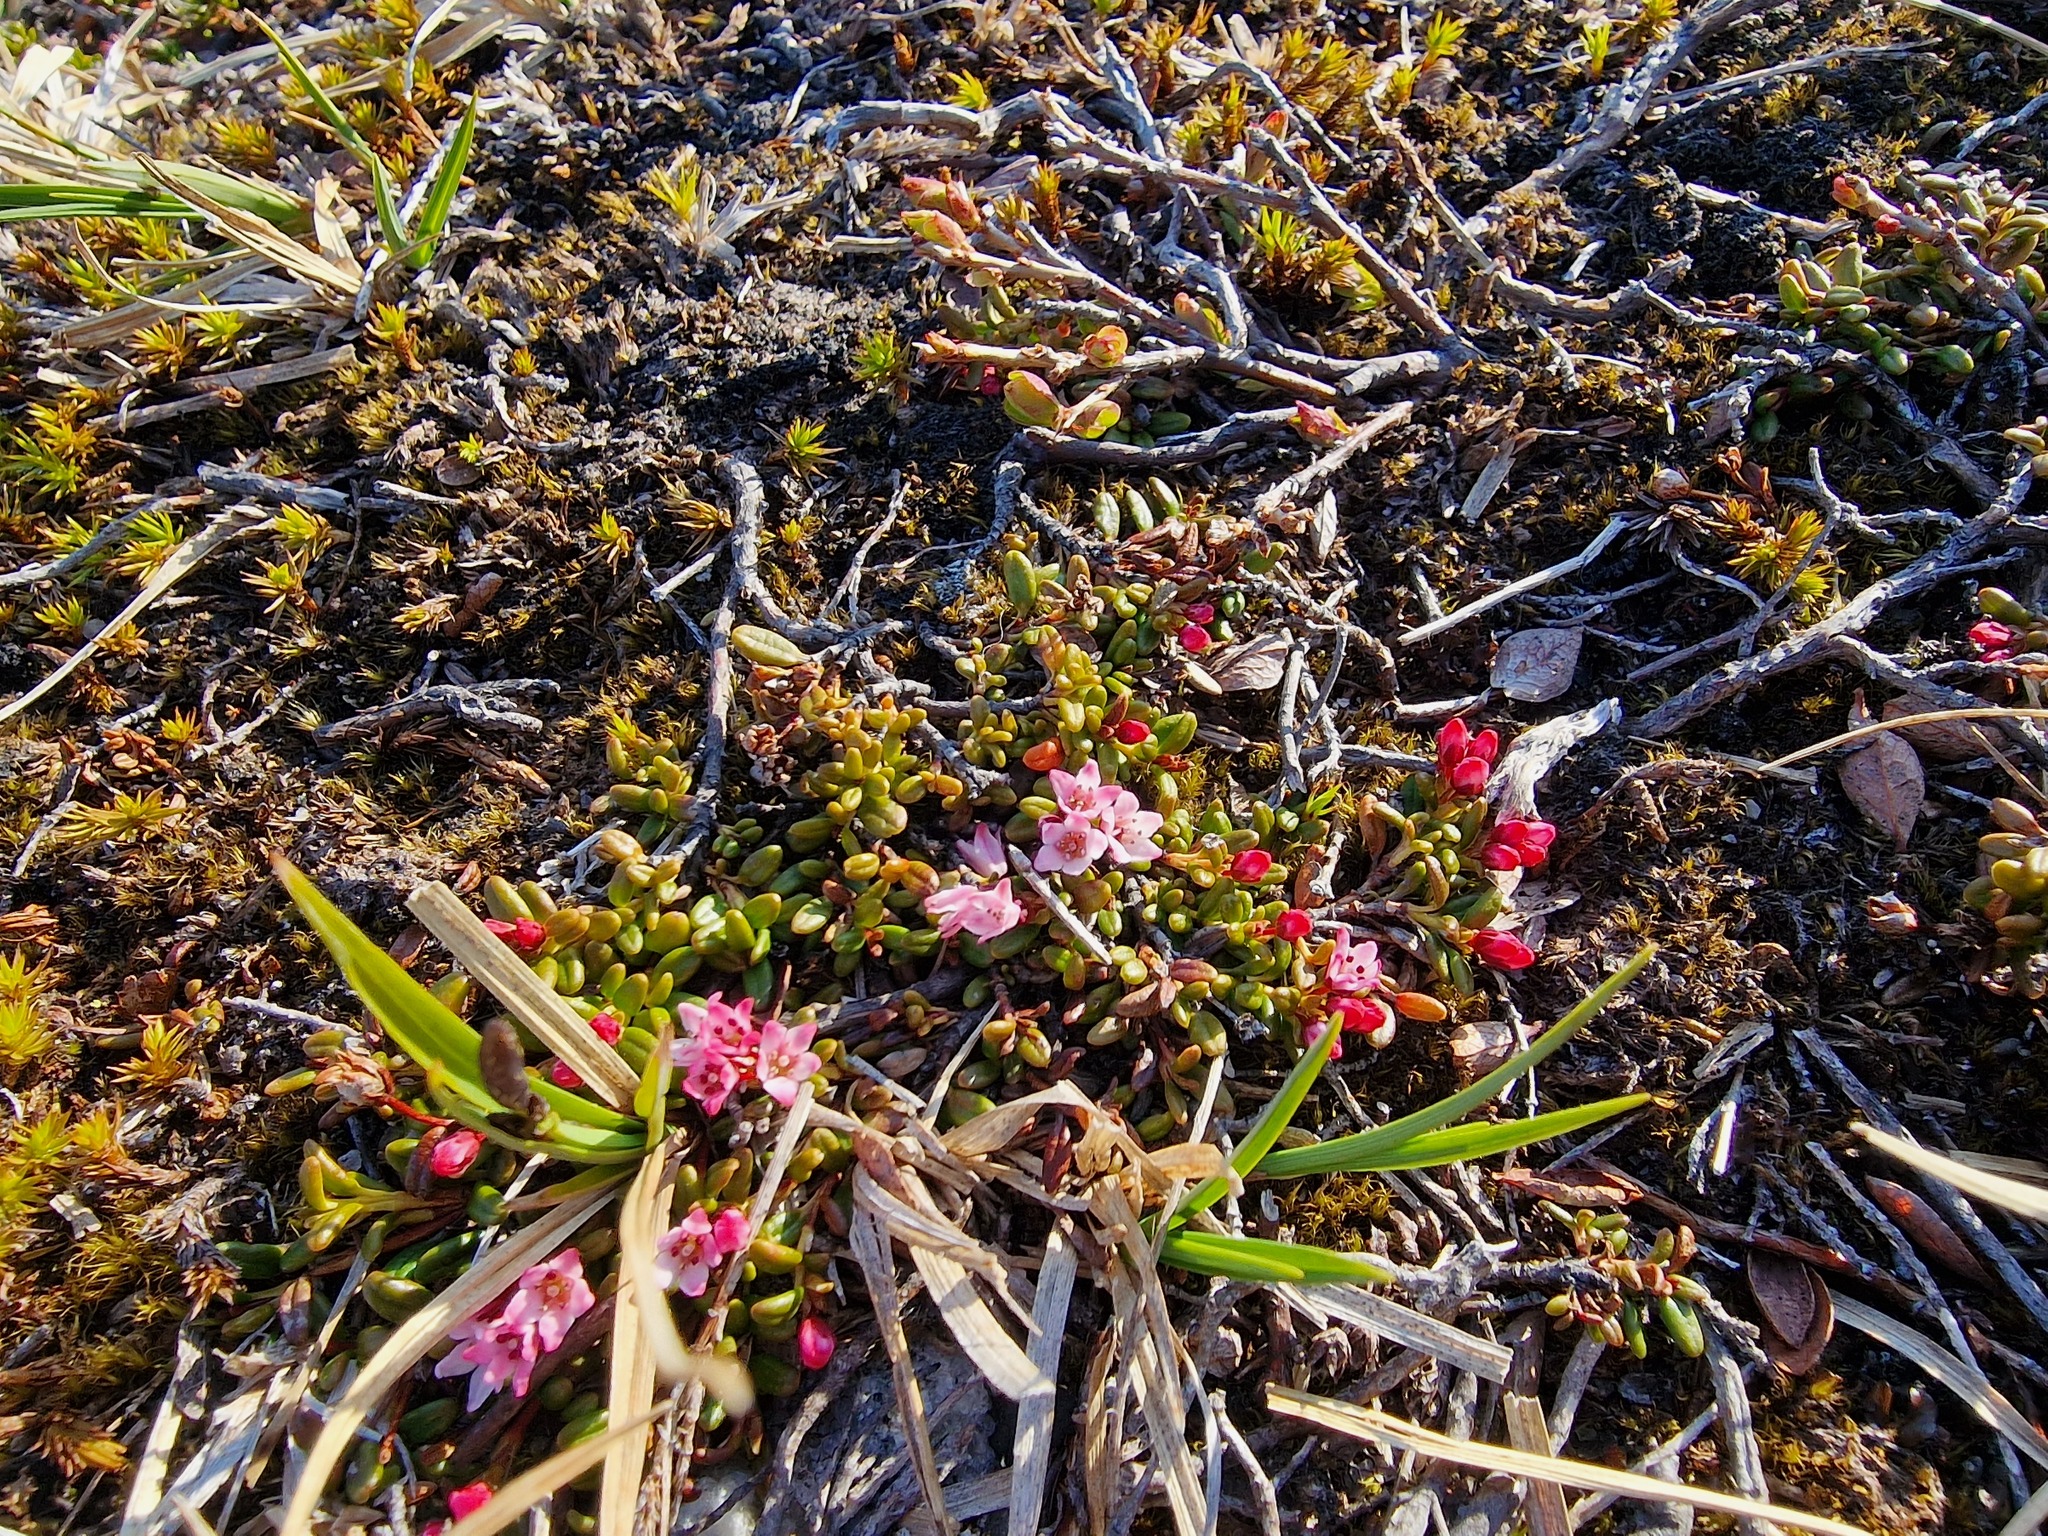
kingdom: Plantae
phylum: Tracheophyta
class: Magnoliopsida
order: Ericales
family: Ericaceae
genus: Kalmia
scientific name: Kalmia procumbens
